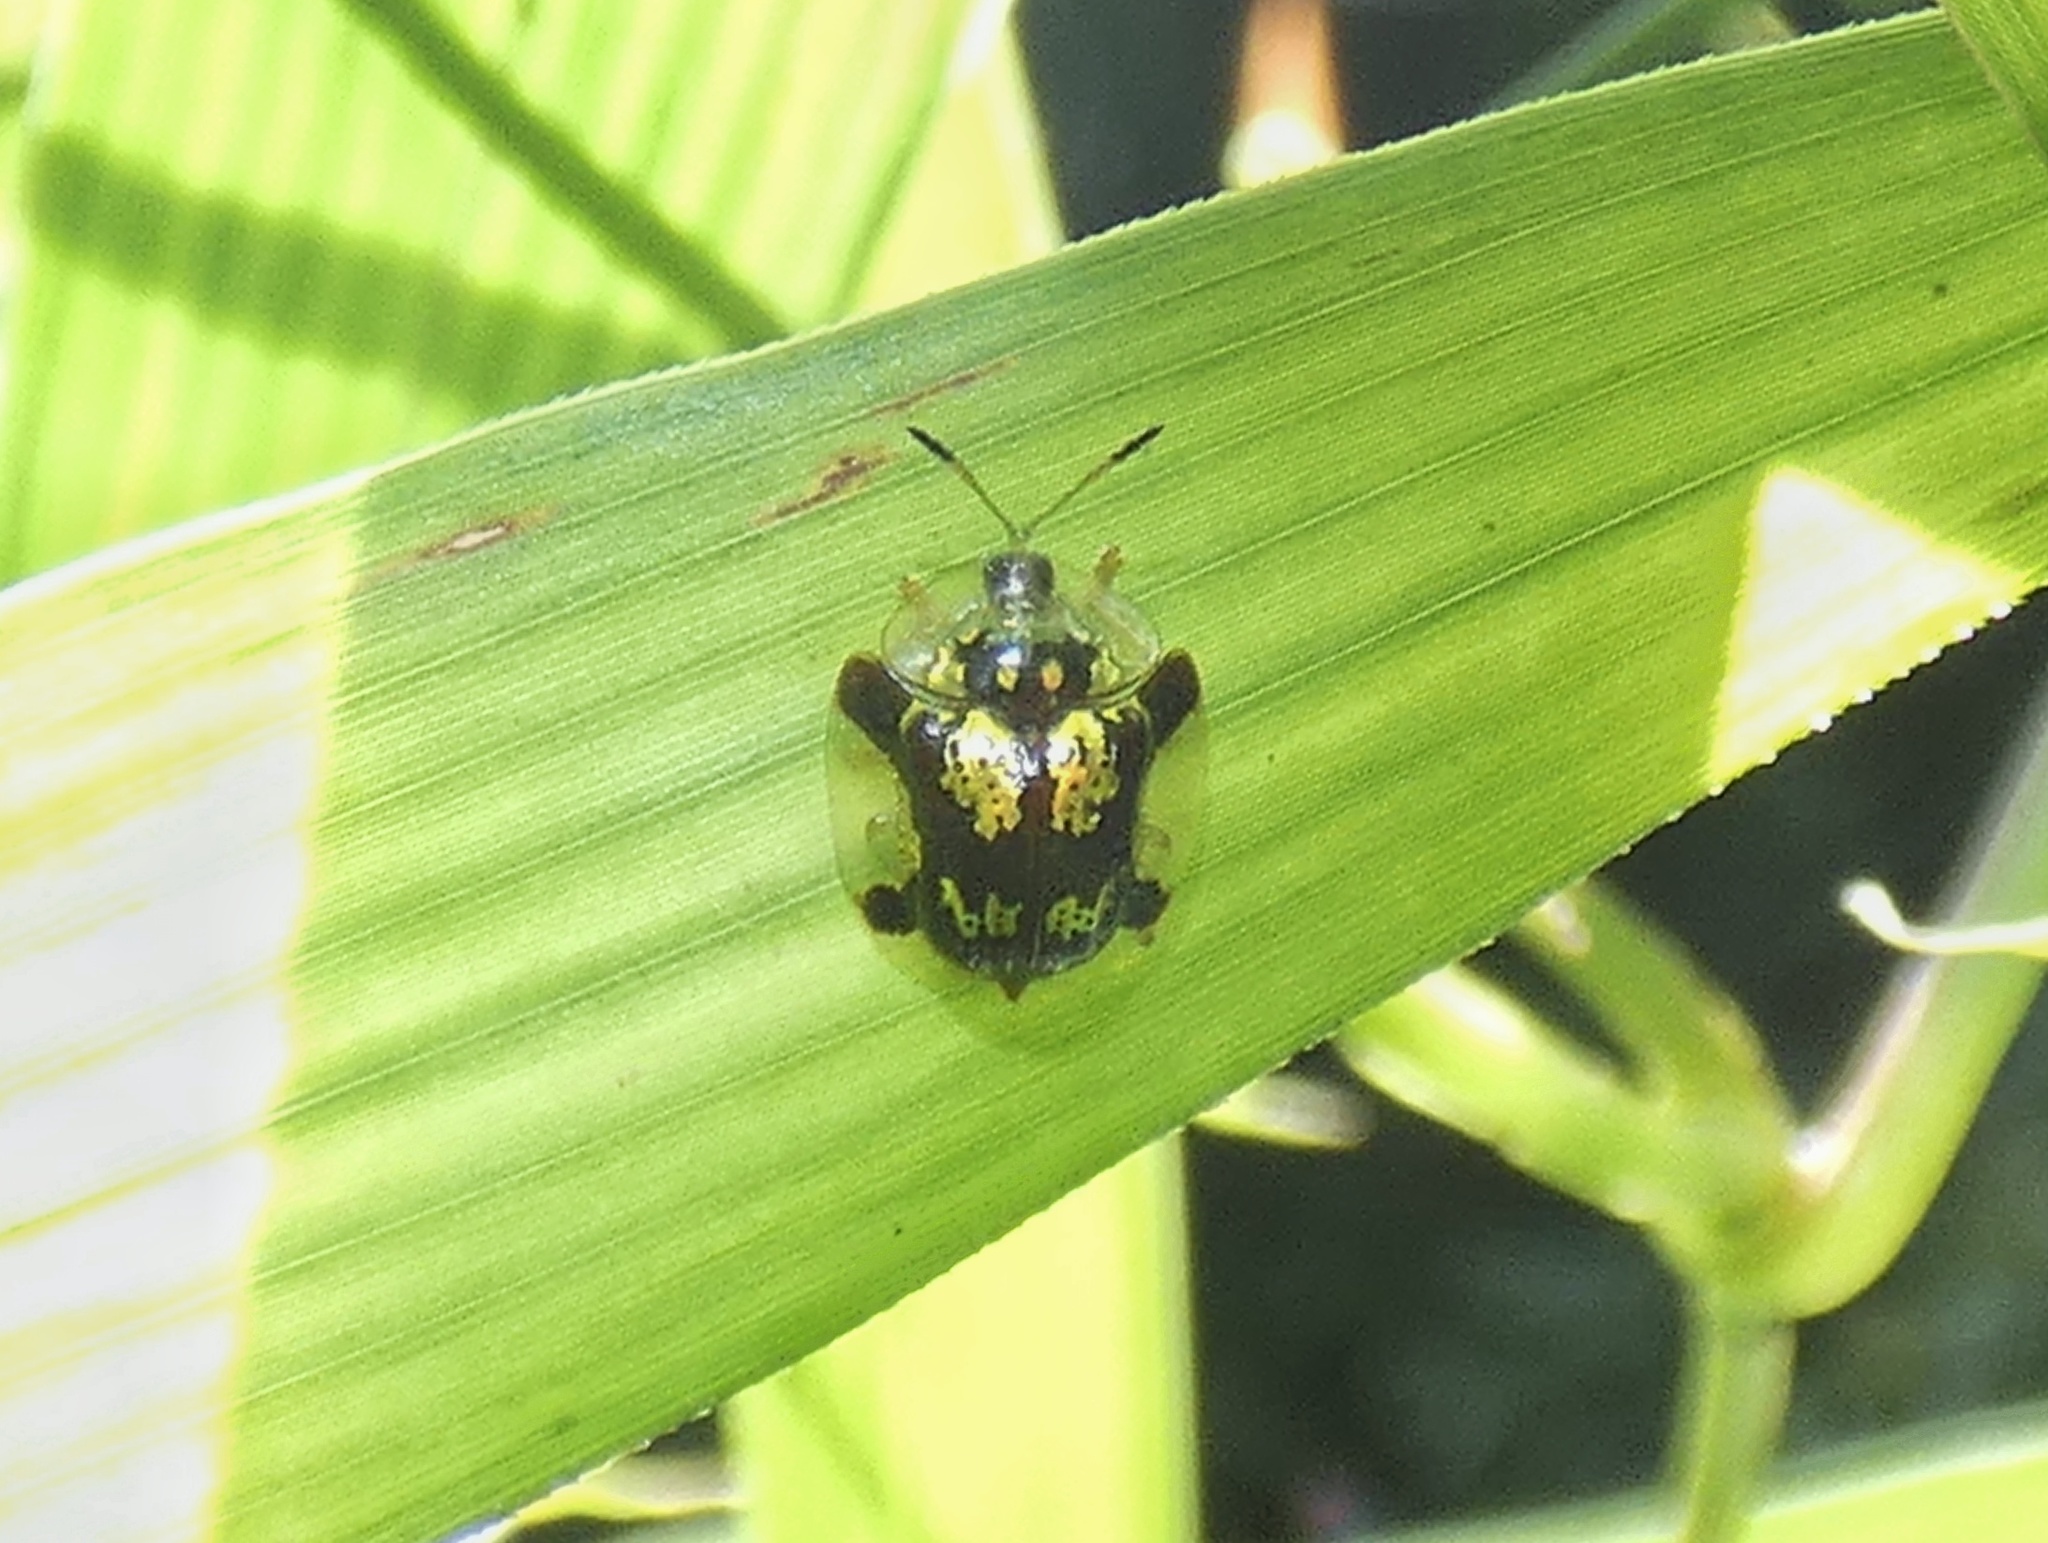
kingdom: Animalia
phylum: Arthropoda
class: Insecta
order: Coleoptera
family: Chrysomelidae
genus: Deloyala
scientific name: Deloyala insubida
